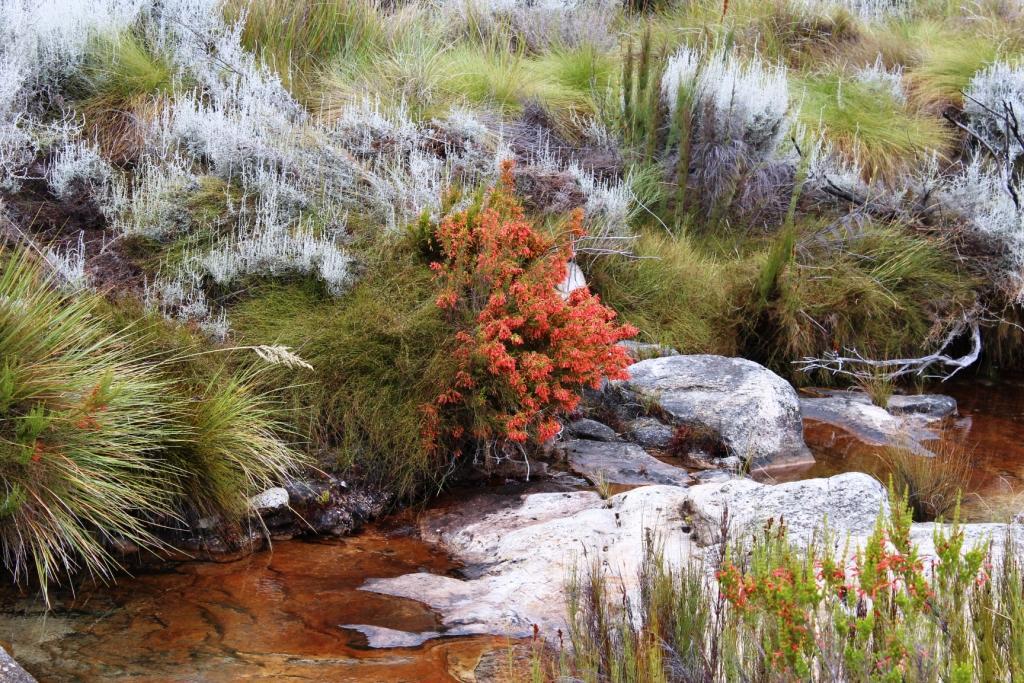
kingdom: Plantae
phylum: Tracheophyta
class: Magnoliopsida
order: Ericales
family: Ericaceae
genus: Erica
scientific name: Erica curviflora
